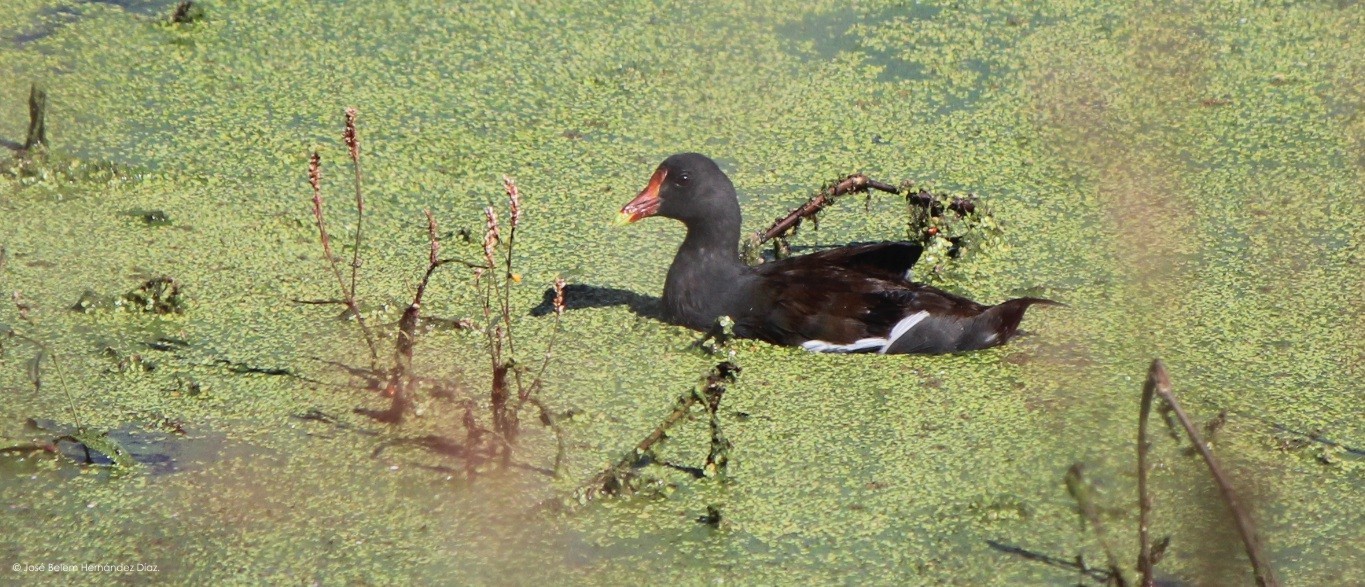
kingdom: Animalia
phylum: Chordata
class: Aves
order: Gruiformes
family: Rallidae
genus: Gallinula
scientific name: Gallinula chloropus
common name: Common moorhen
